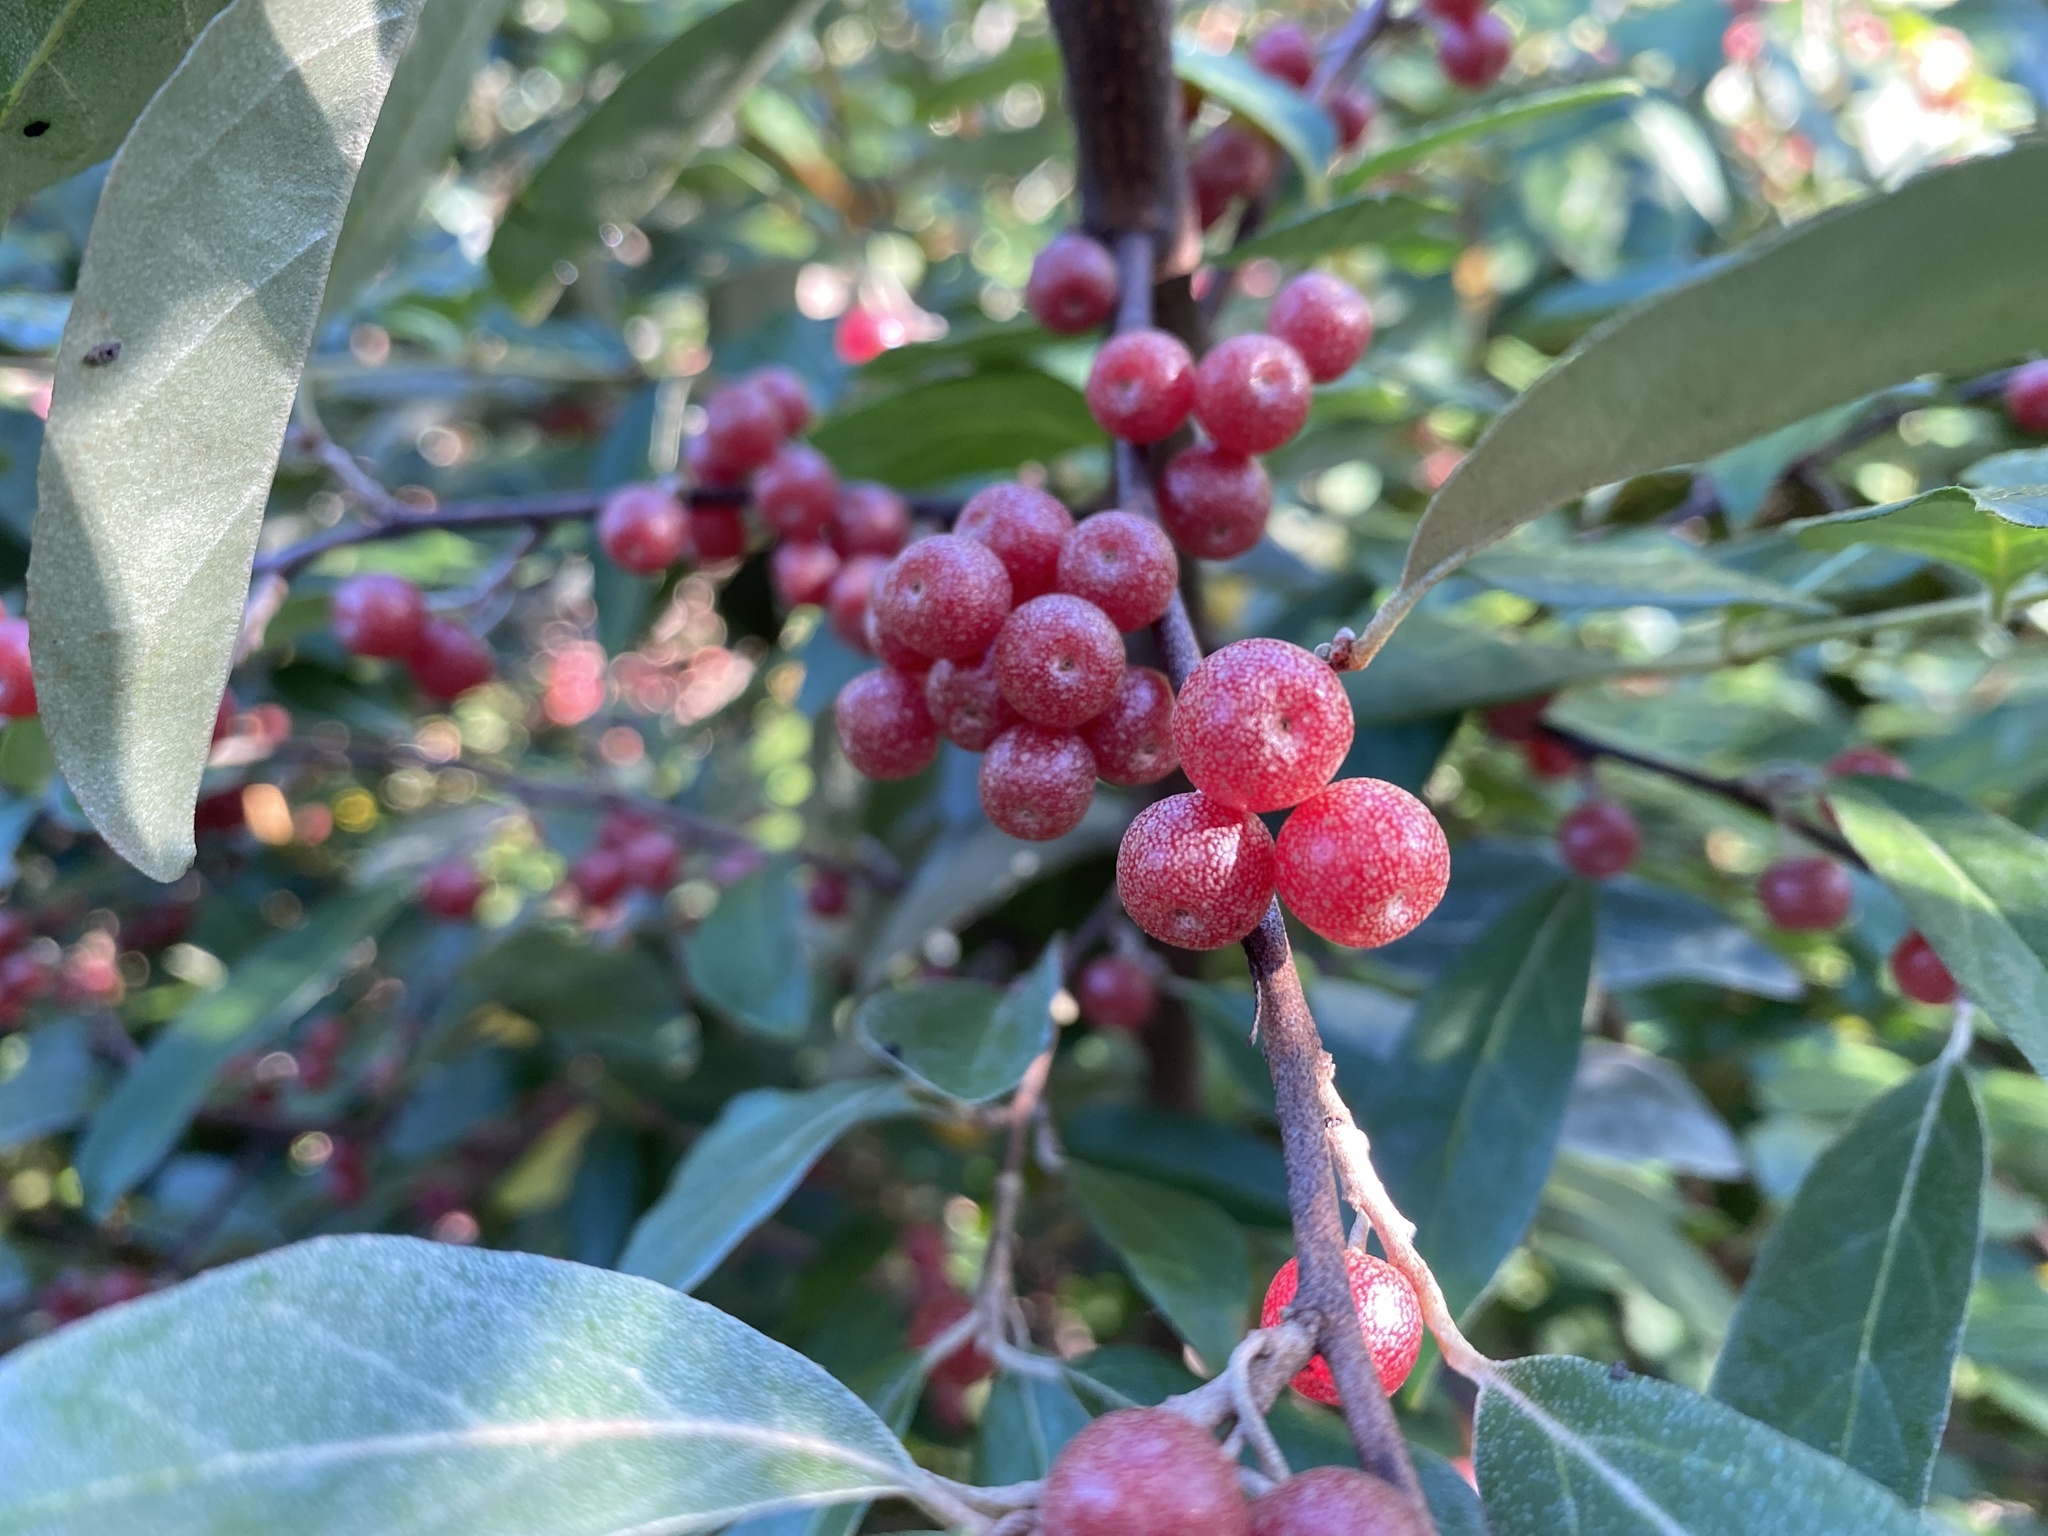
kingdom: Plantae
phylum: Tracheophyta
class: Magnoliopsida
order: Rosales
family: Elaeagnaceae
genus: Elaeagnus
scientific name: Elaeagnus umbellata
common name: Autumn olive
